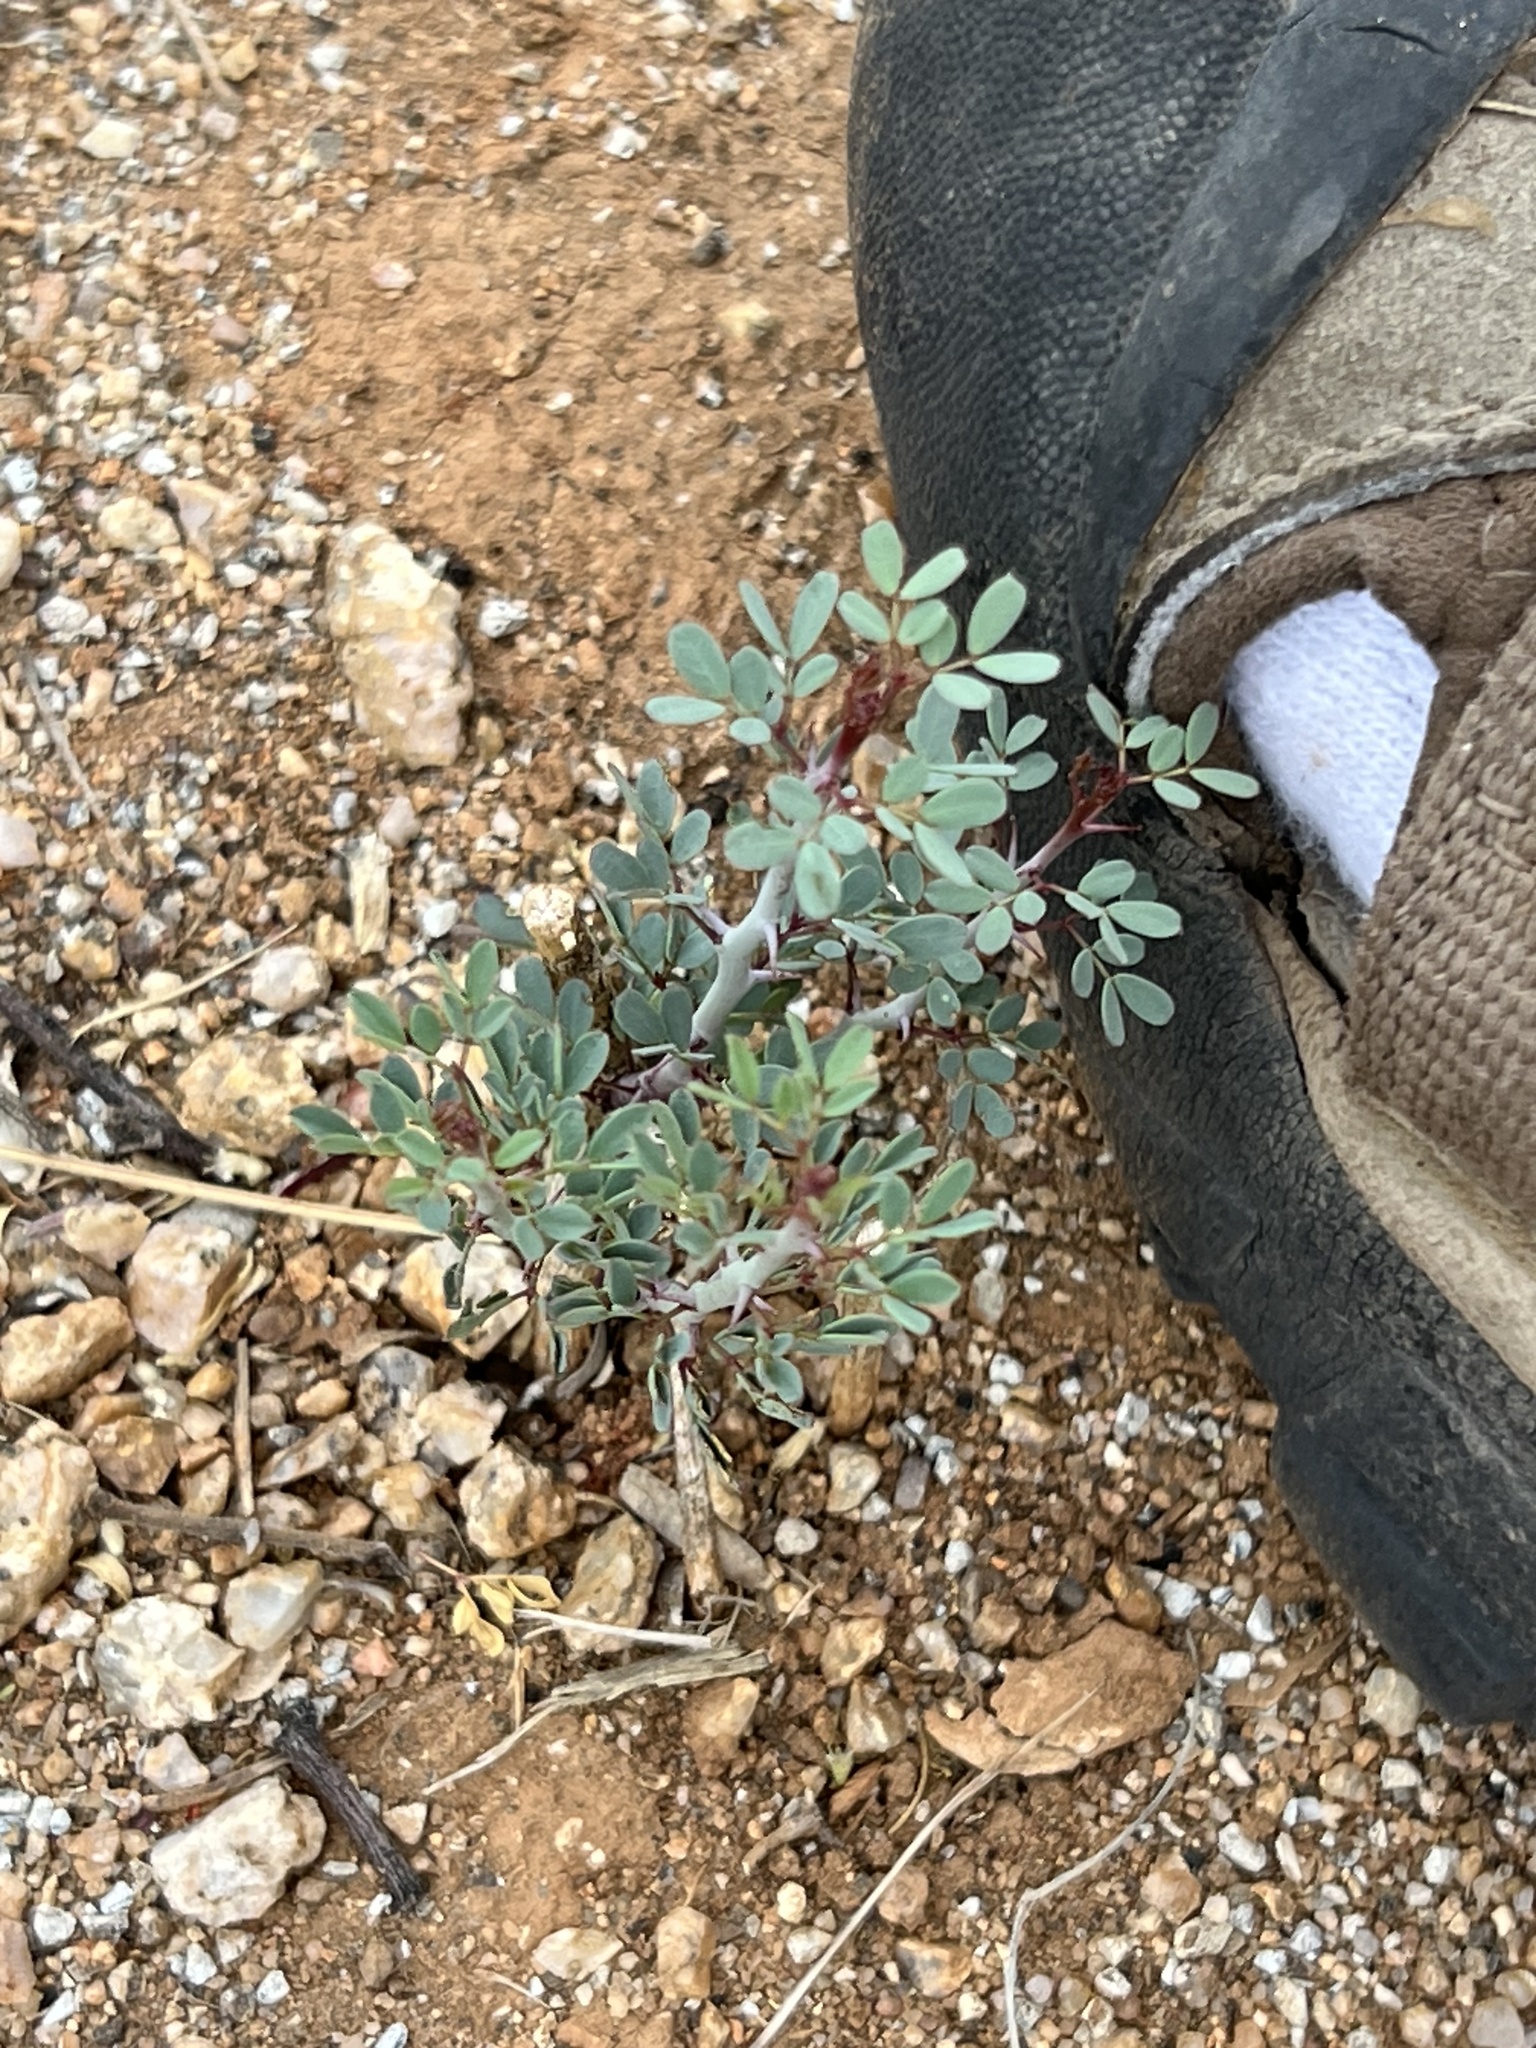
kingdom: Plantae
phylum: Tracheophyta
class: Magnoliopsida
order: Fabales
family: Fabaceae
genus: Parkinsonia
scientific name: Parkinsonia florida
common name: Blue paloverde
